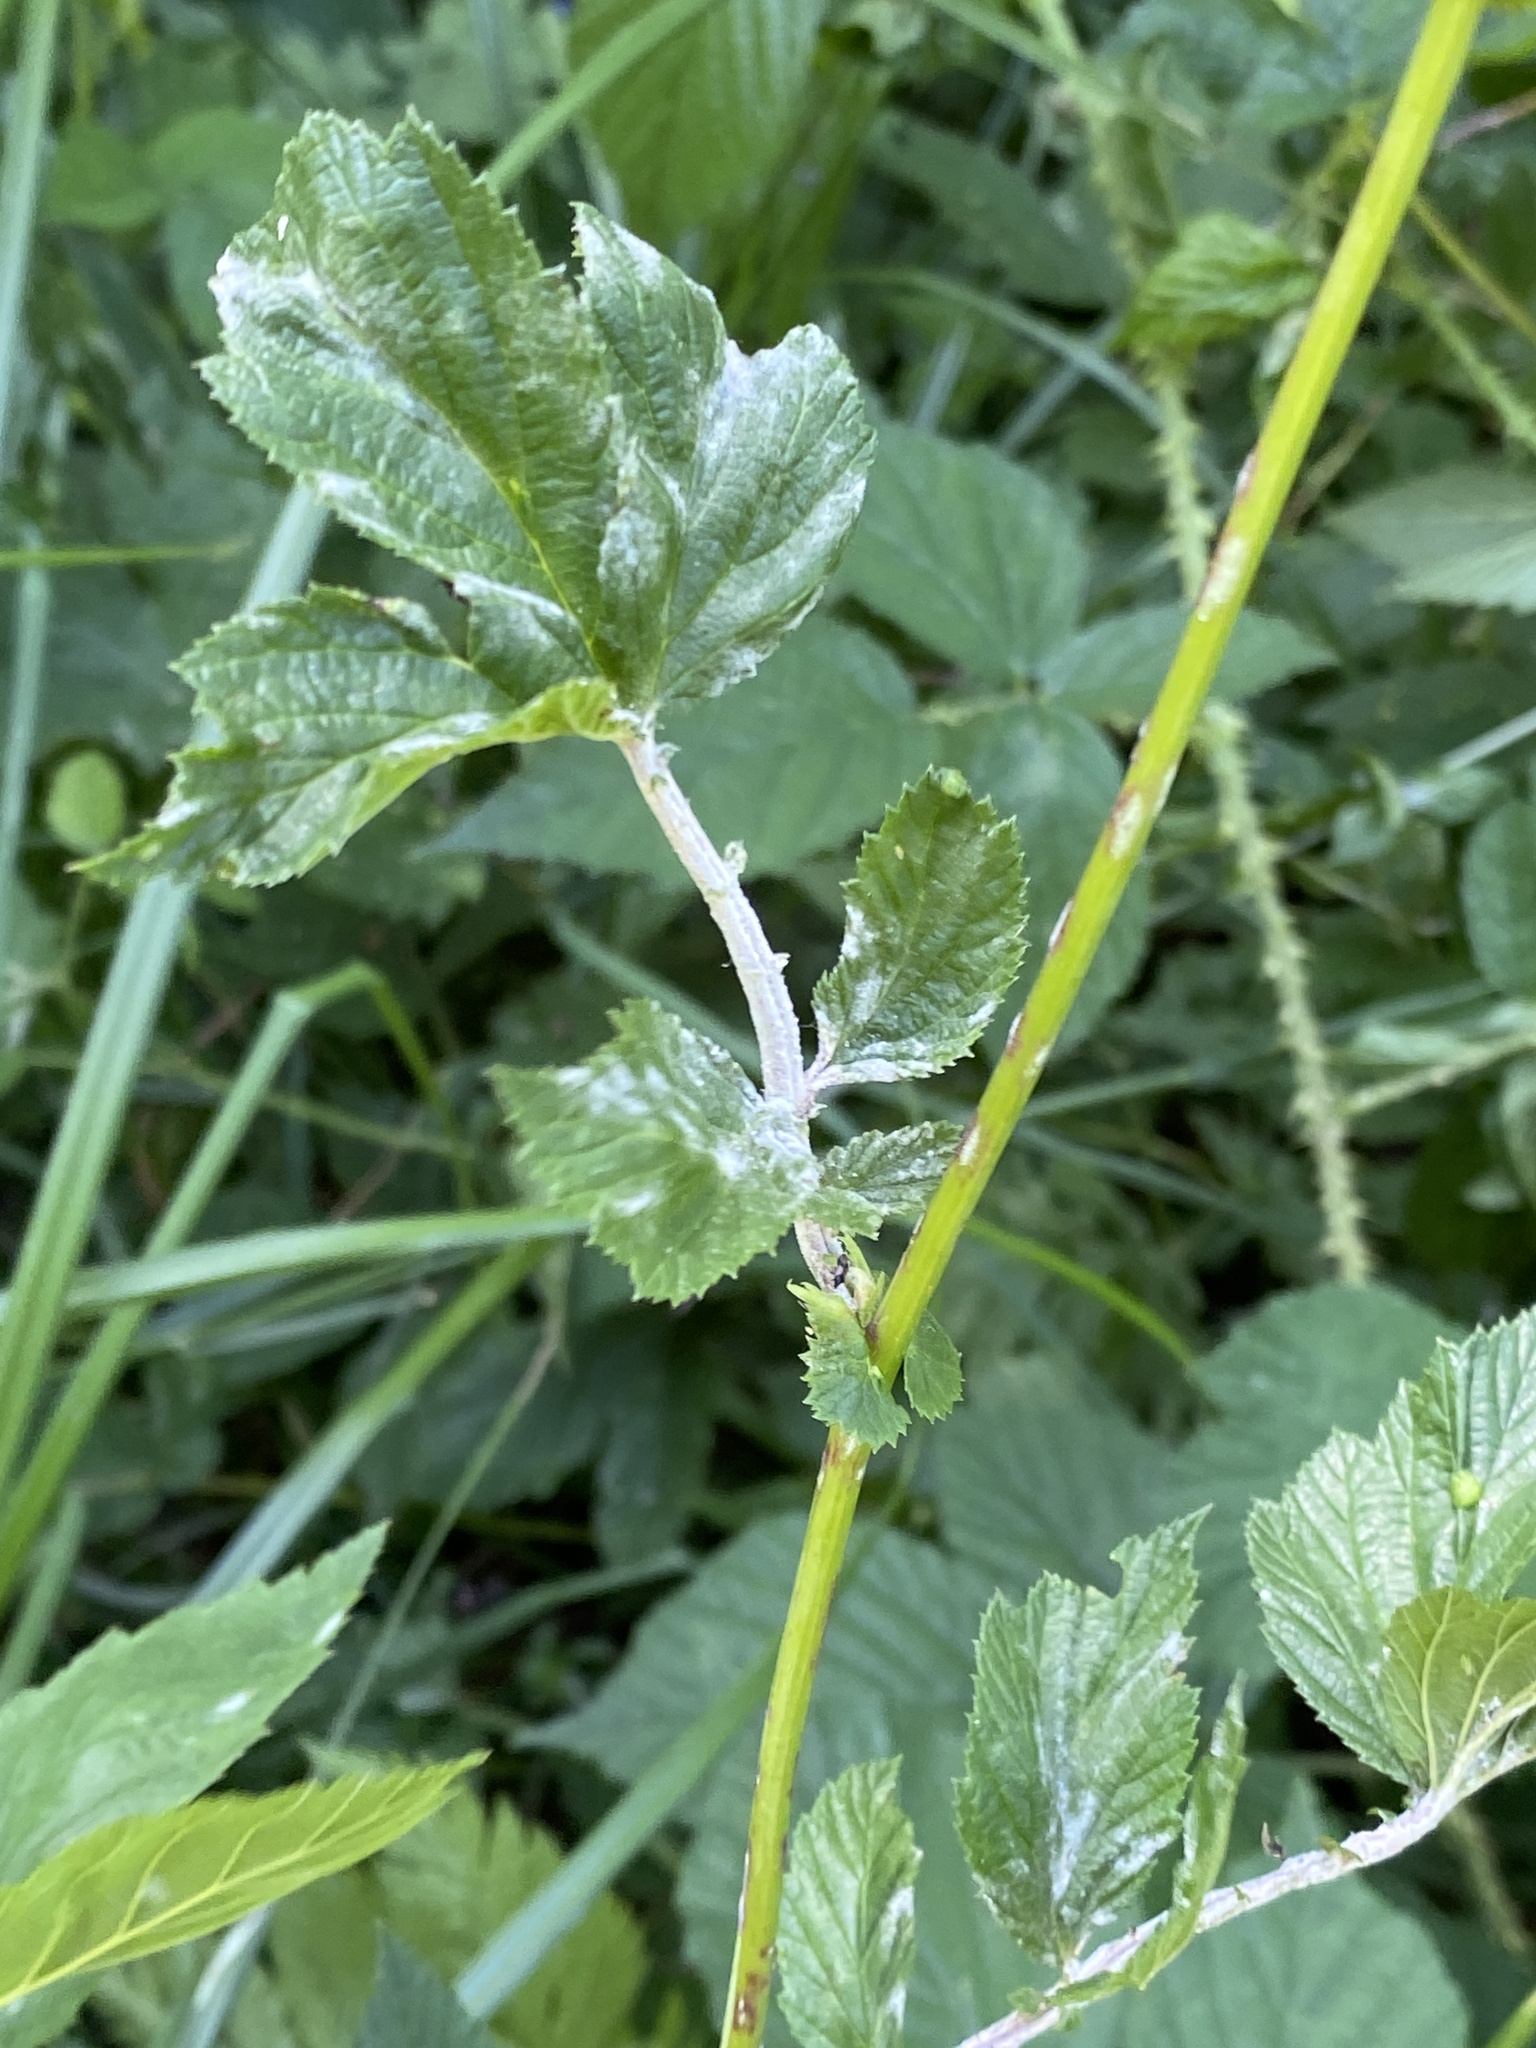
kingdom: Plantae
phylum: Tracheophyta
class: Magnoliopsida
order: Rosales
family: Rosaceae
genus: Filipendula
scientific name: Filipendula ulmaria
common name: Meadowsweet
